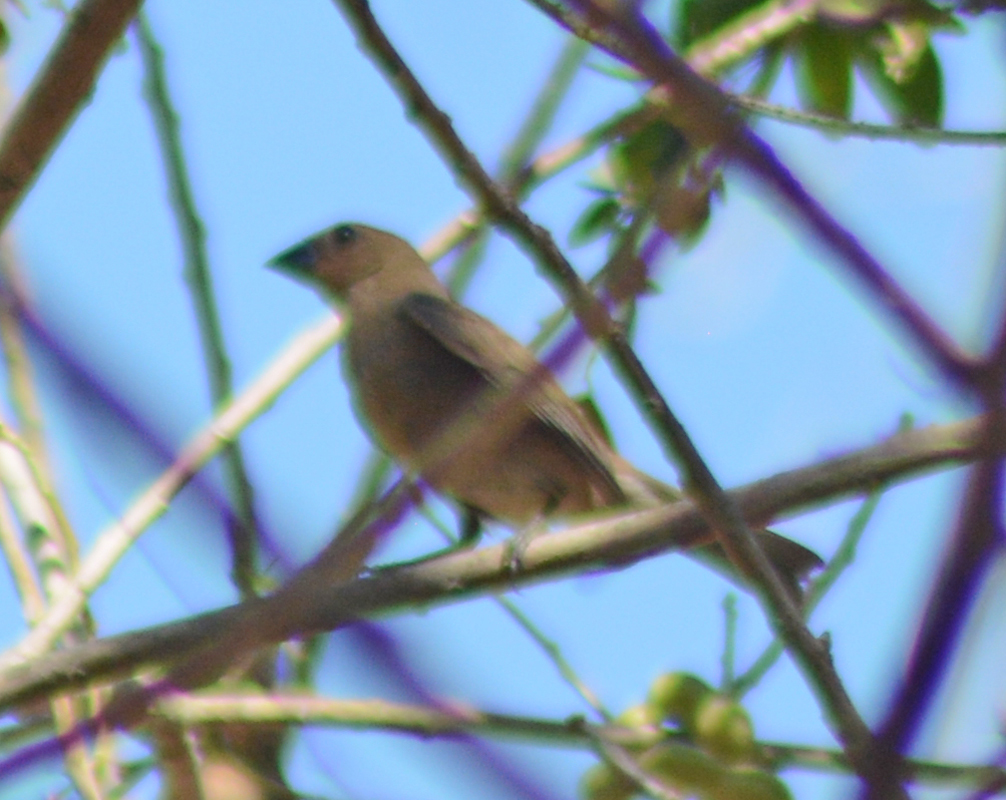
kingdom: Animalia
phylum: Chordata
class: Aves
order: Passeriformes
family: Cardinalidae
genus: Cyanocompsa
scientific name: Cyanocompsa parellina
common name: Blue bunting
